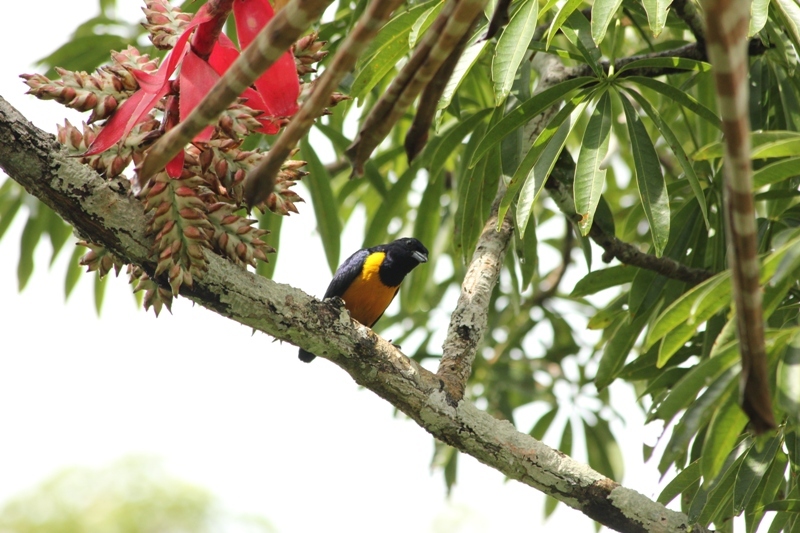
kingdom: Animalia
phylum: Chordata
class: Aves
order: Passeriformes
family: Fringillidae
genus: Euphonia
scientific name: Euphonia rufiventris
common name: Rufous-bellied euphonia
